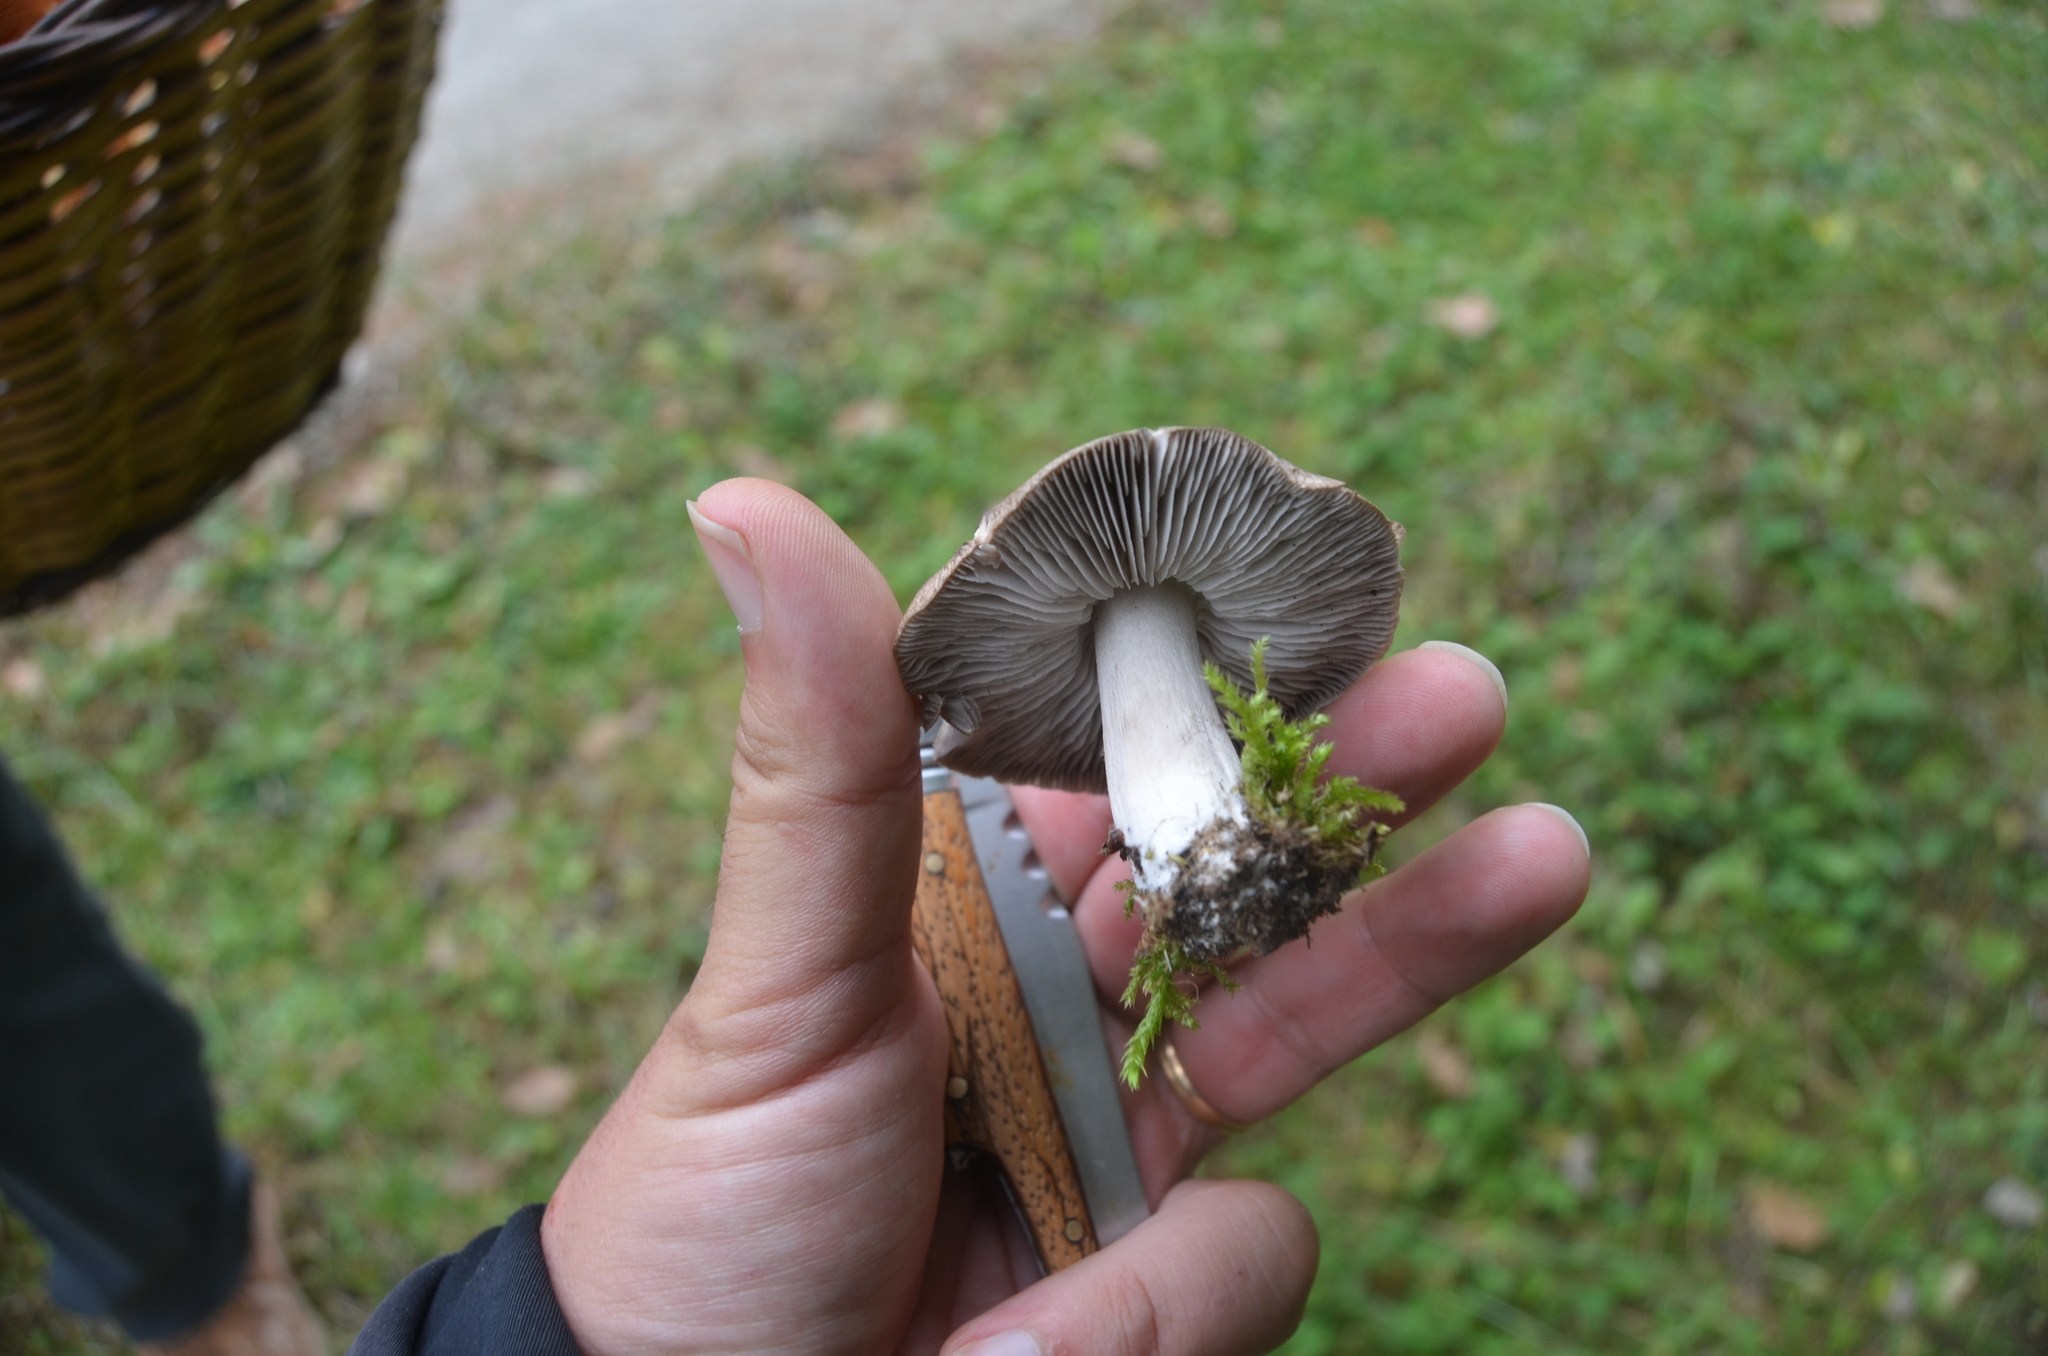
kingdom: Fungi
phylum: Basidiomycota
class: Agaricomycetes
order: Agaricales
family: Tricholomataceae
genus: Tricholoma
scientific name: Tricholoma terreum
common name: Grey knight
